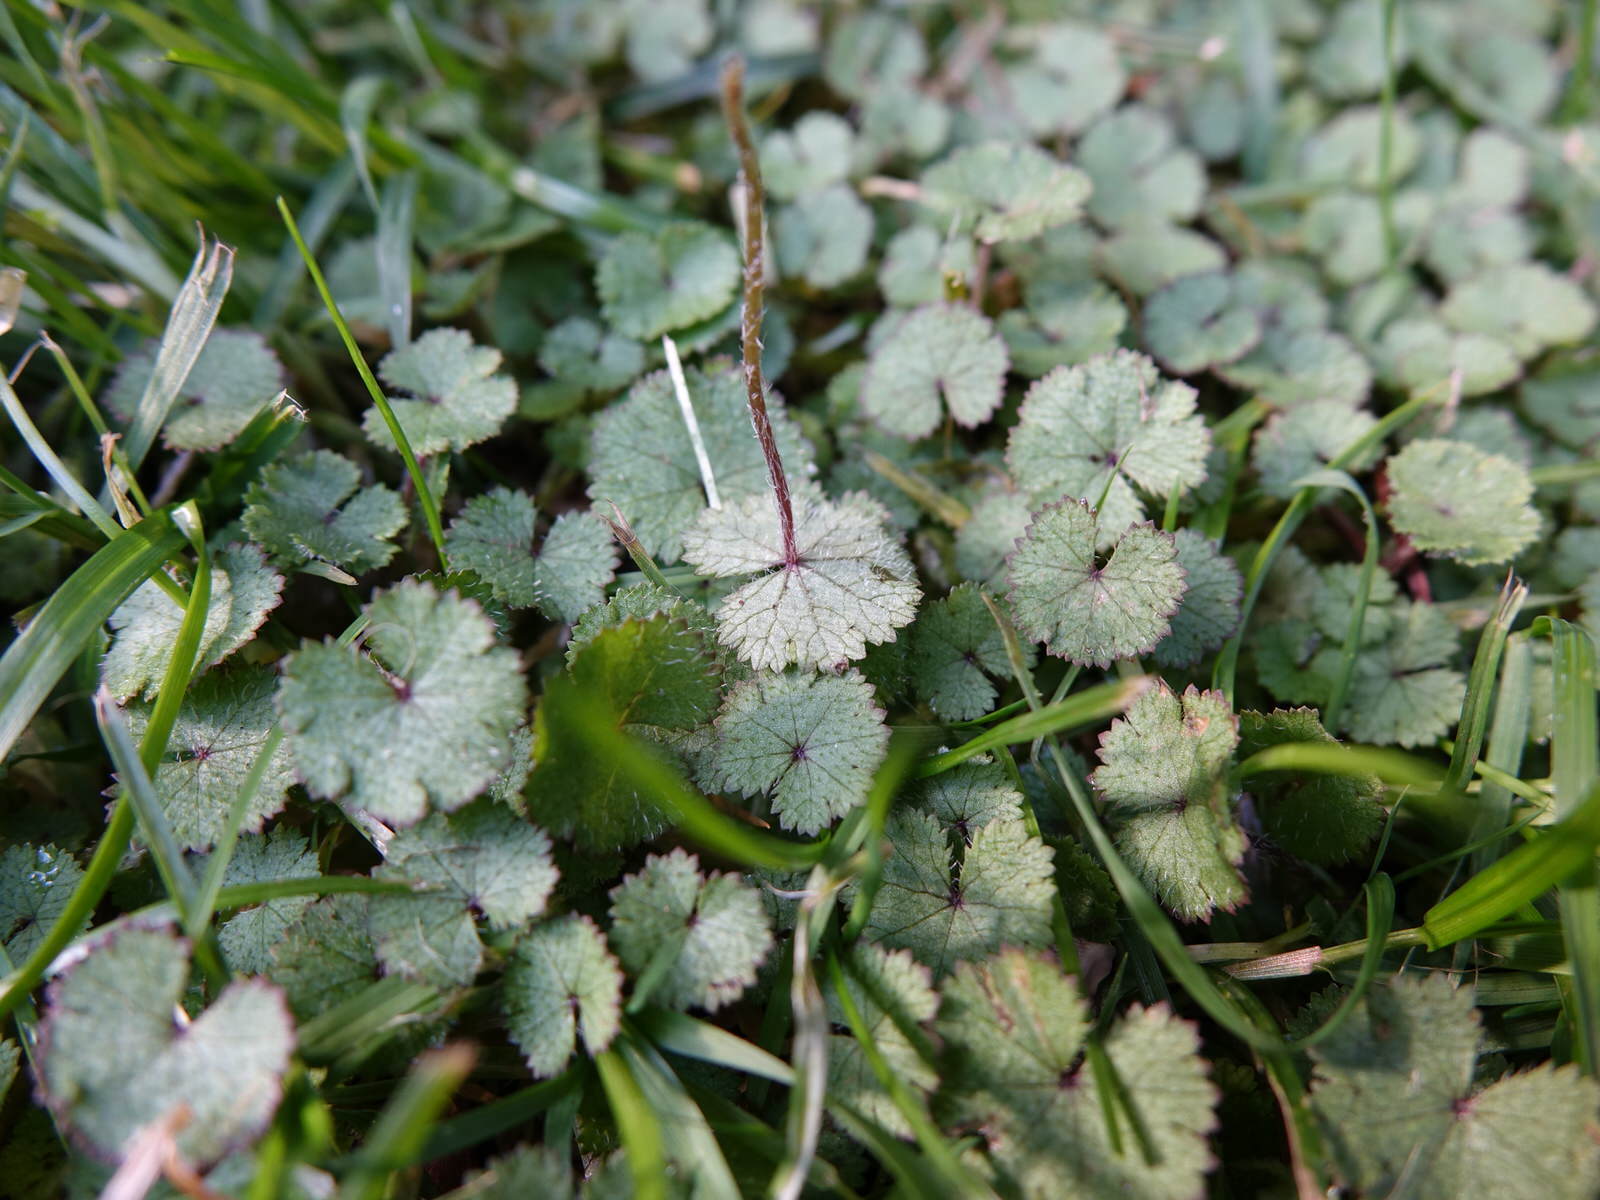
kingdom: Plantae
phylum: Tracheophyta
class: Magnoliopsida
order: Apiales
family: Araliaceae
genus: Hydrocotyle
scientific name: Hydrocotyle moschata
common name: Hairy pennywort
